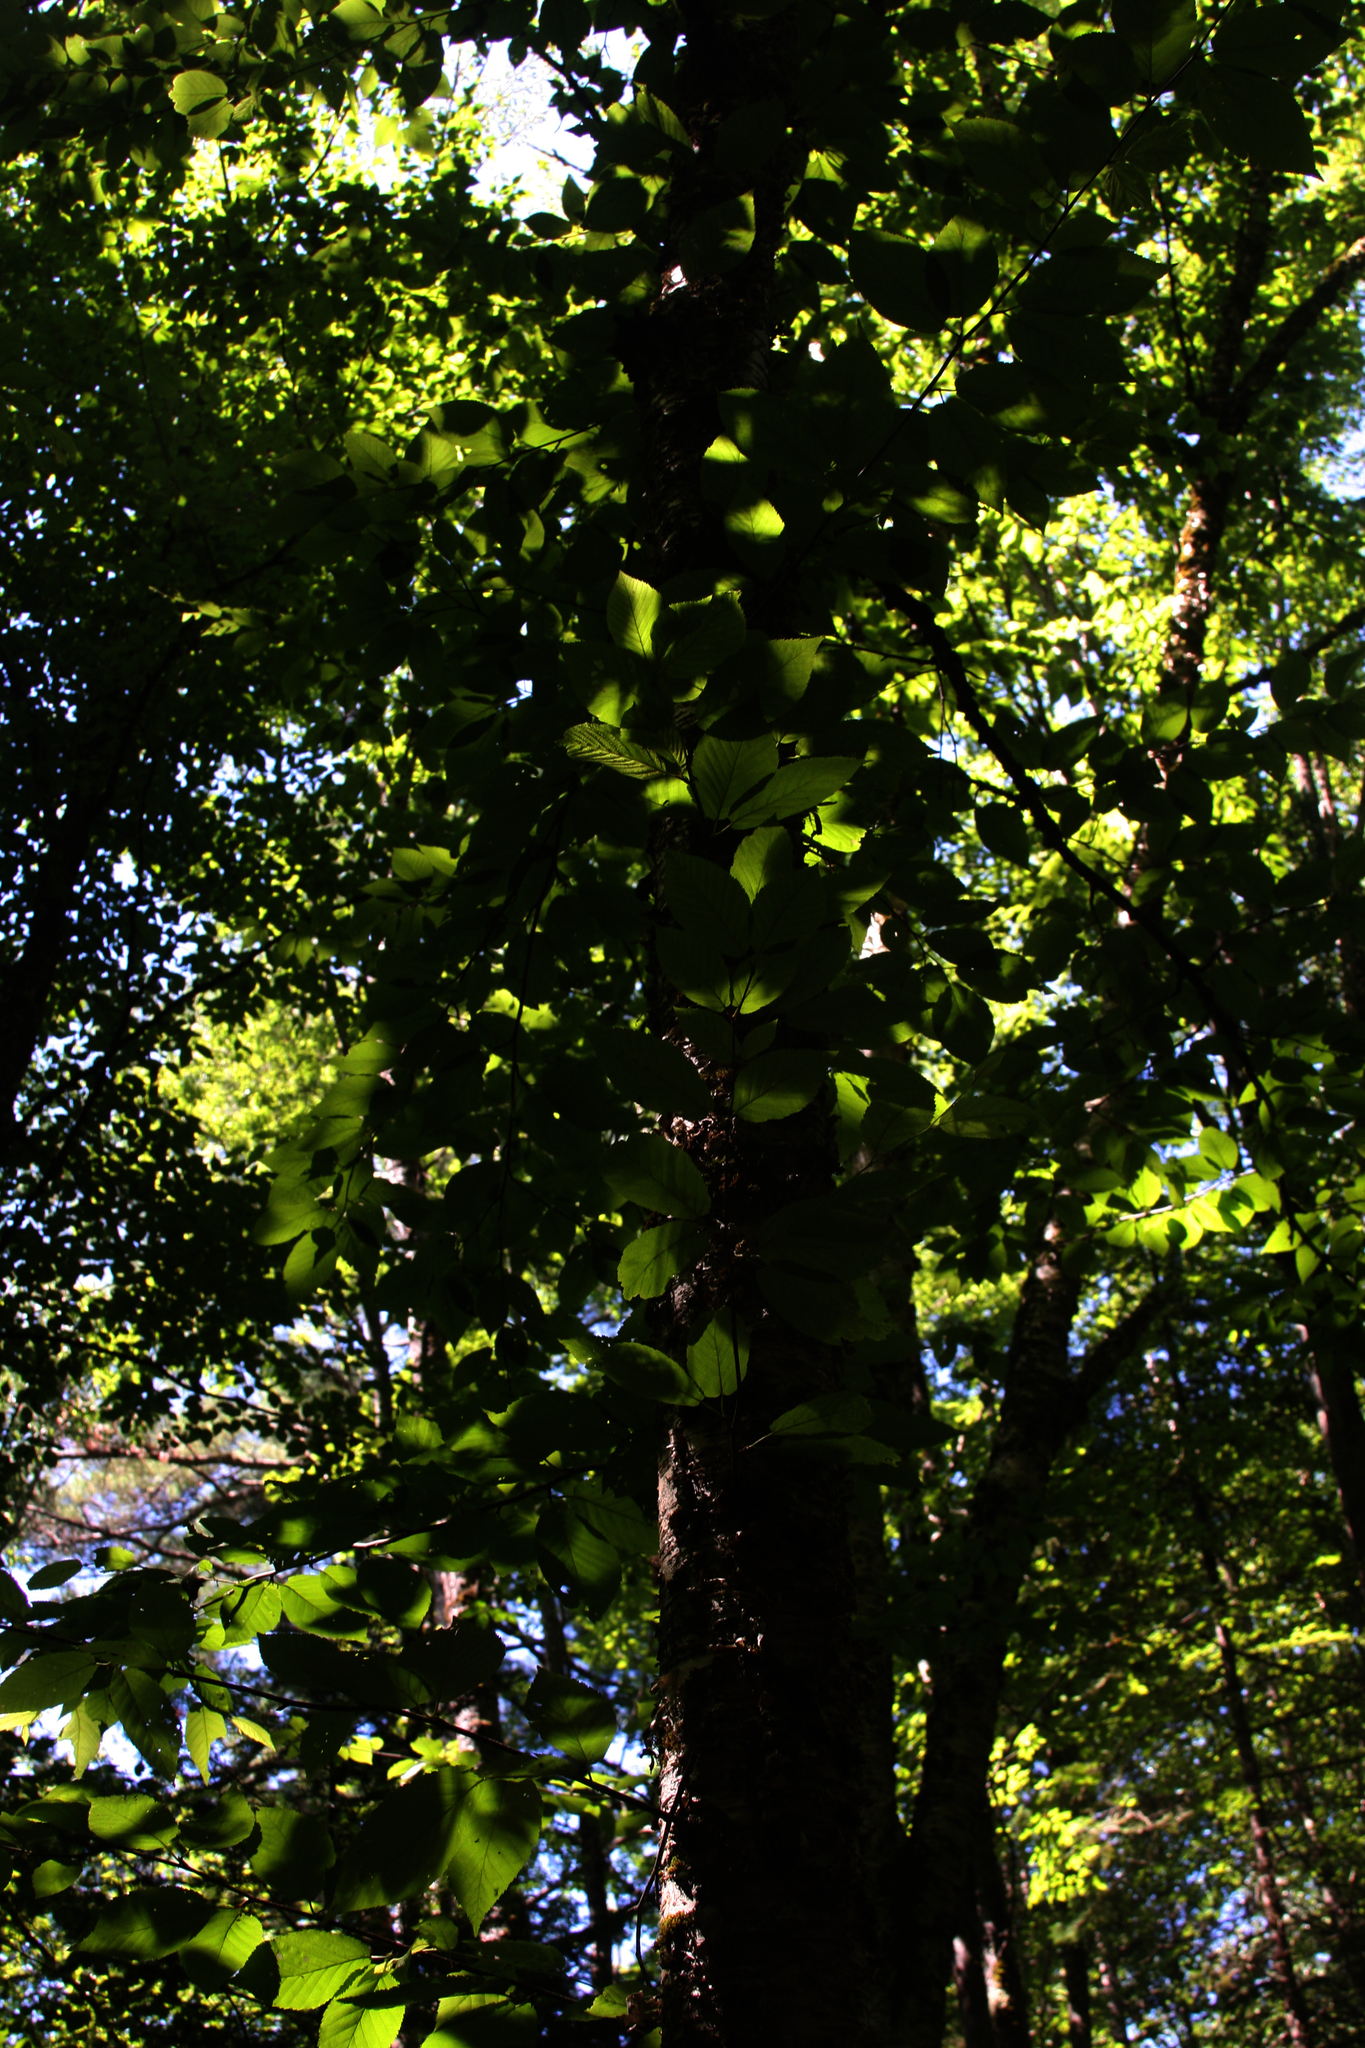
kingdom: Plantae
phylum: Tracheophyta
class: Magnoliopsida
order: Fagales
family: Betulaceae
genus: Betula
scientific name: Betula alleghaniensis
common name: Yellow birch
